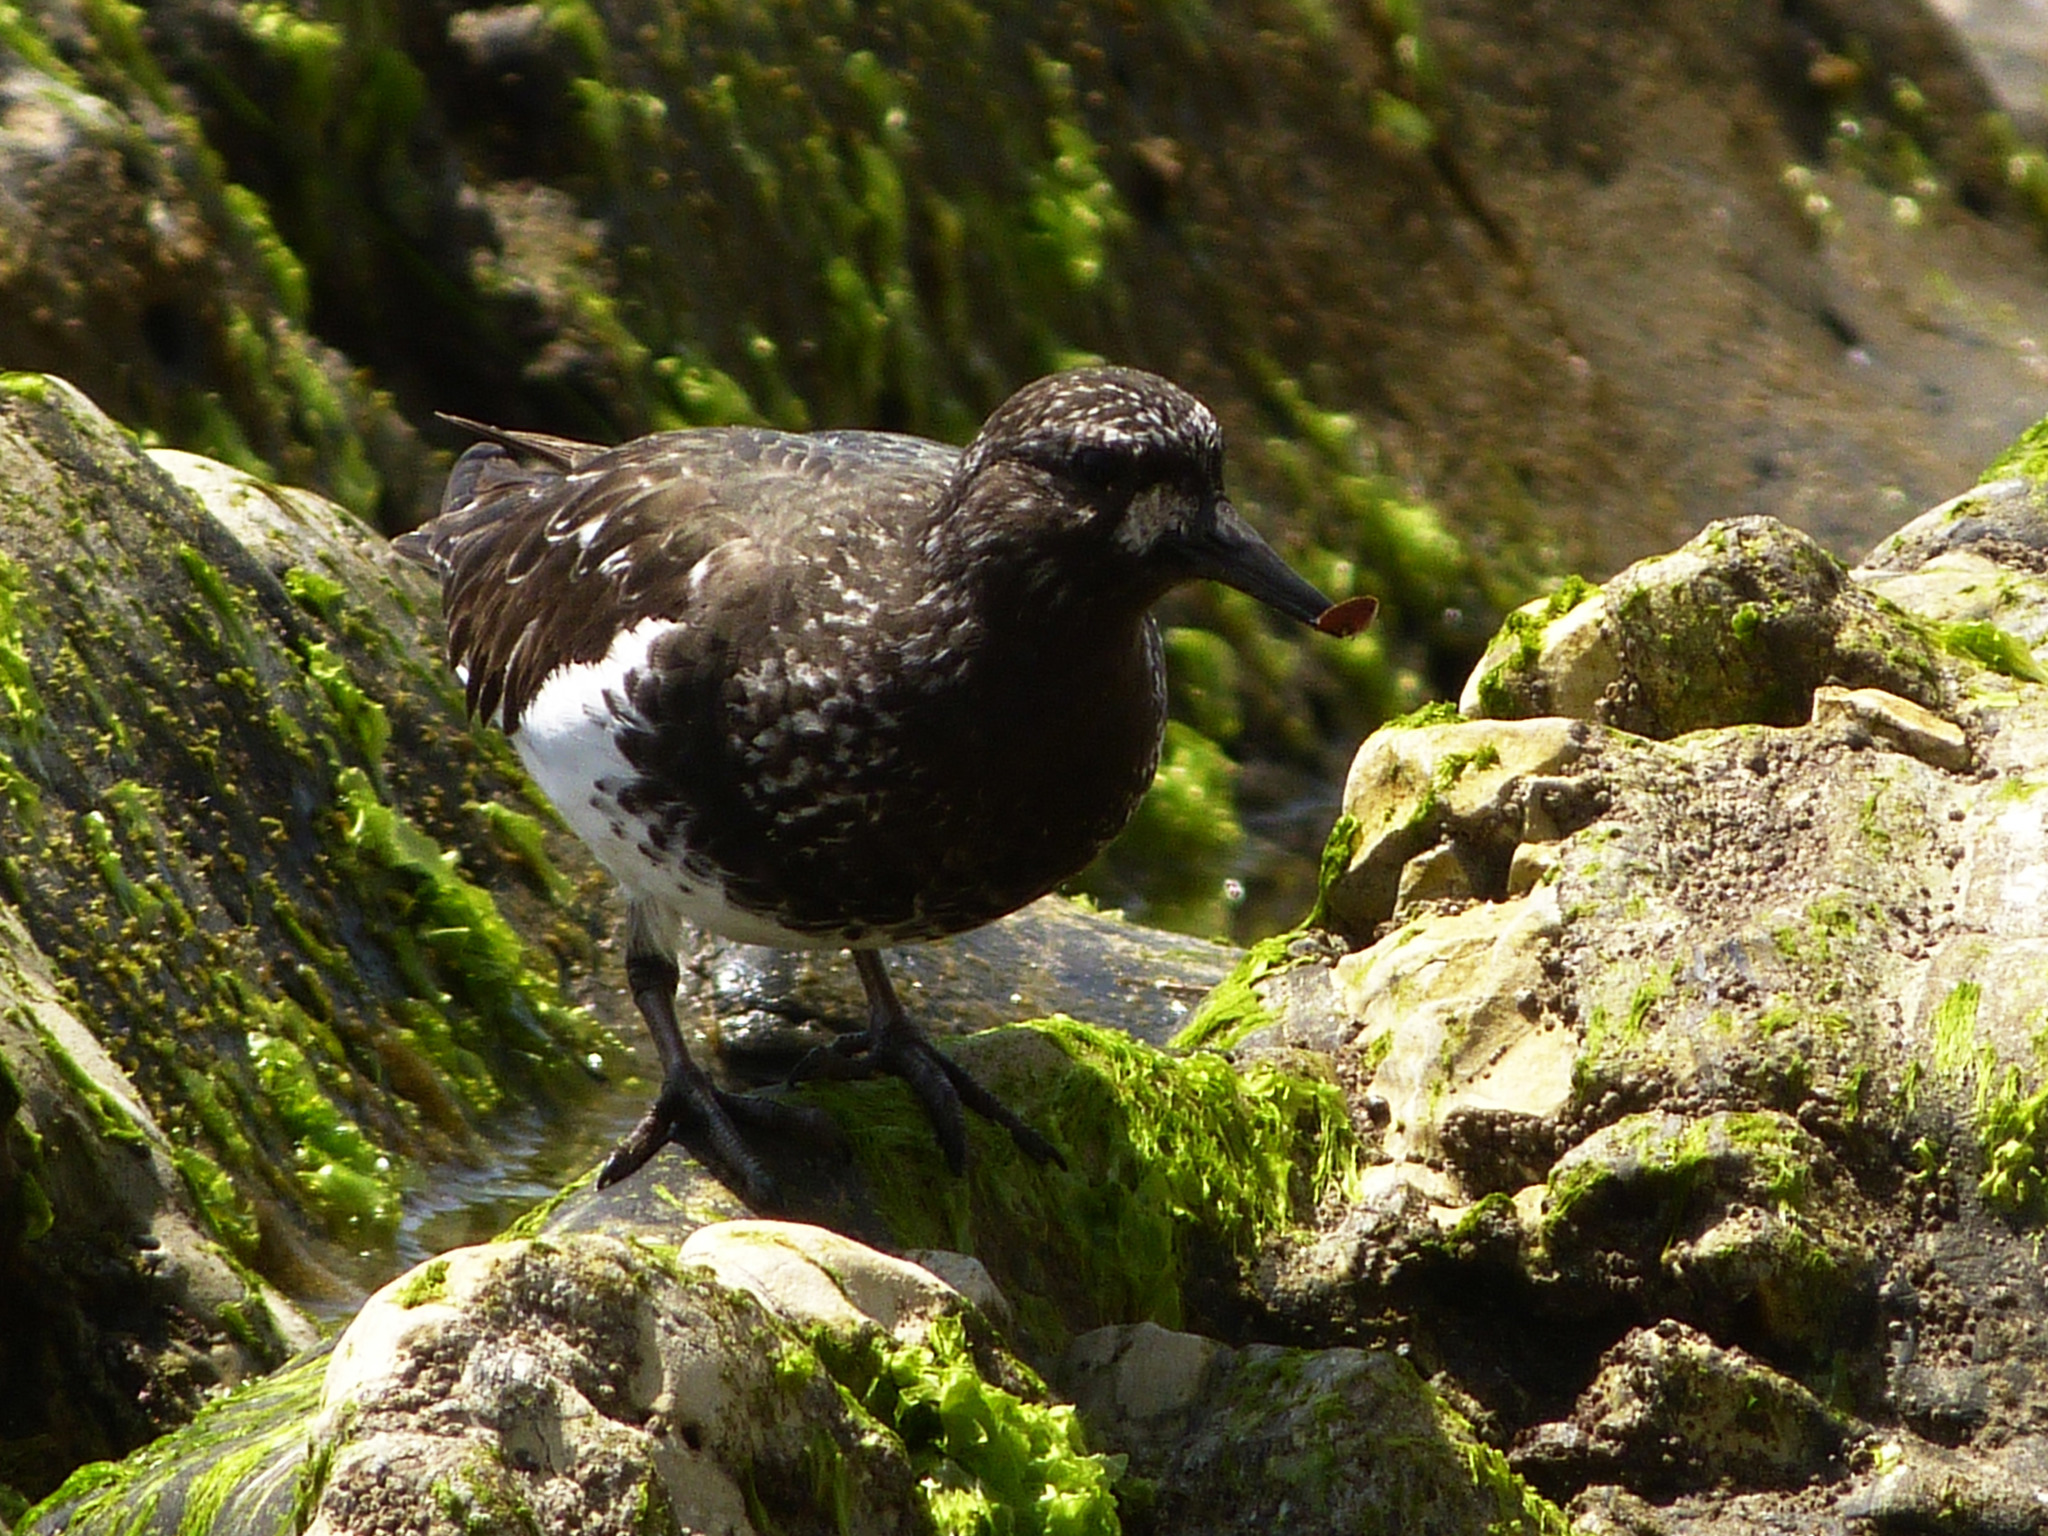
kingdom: Animalia
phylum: Chordata
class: Aves
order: Charadriiformes
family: Scolopacidae
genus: Arenaria
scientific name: Arenaria melanocephala
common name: Black turnstone
